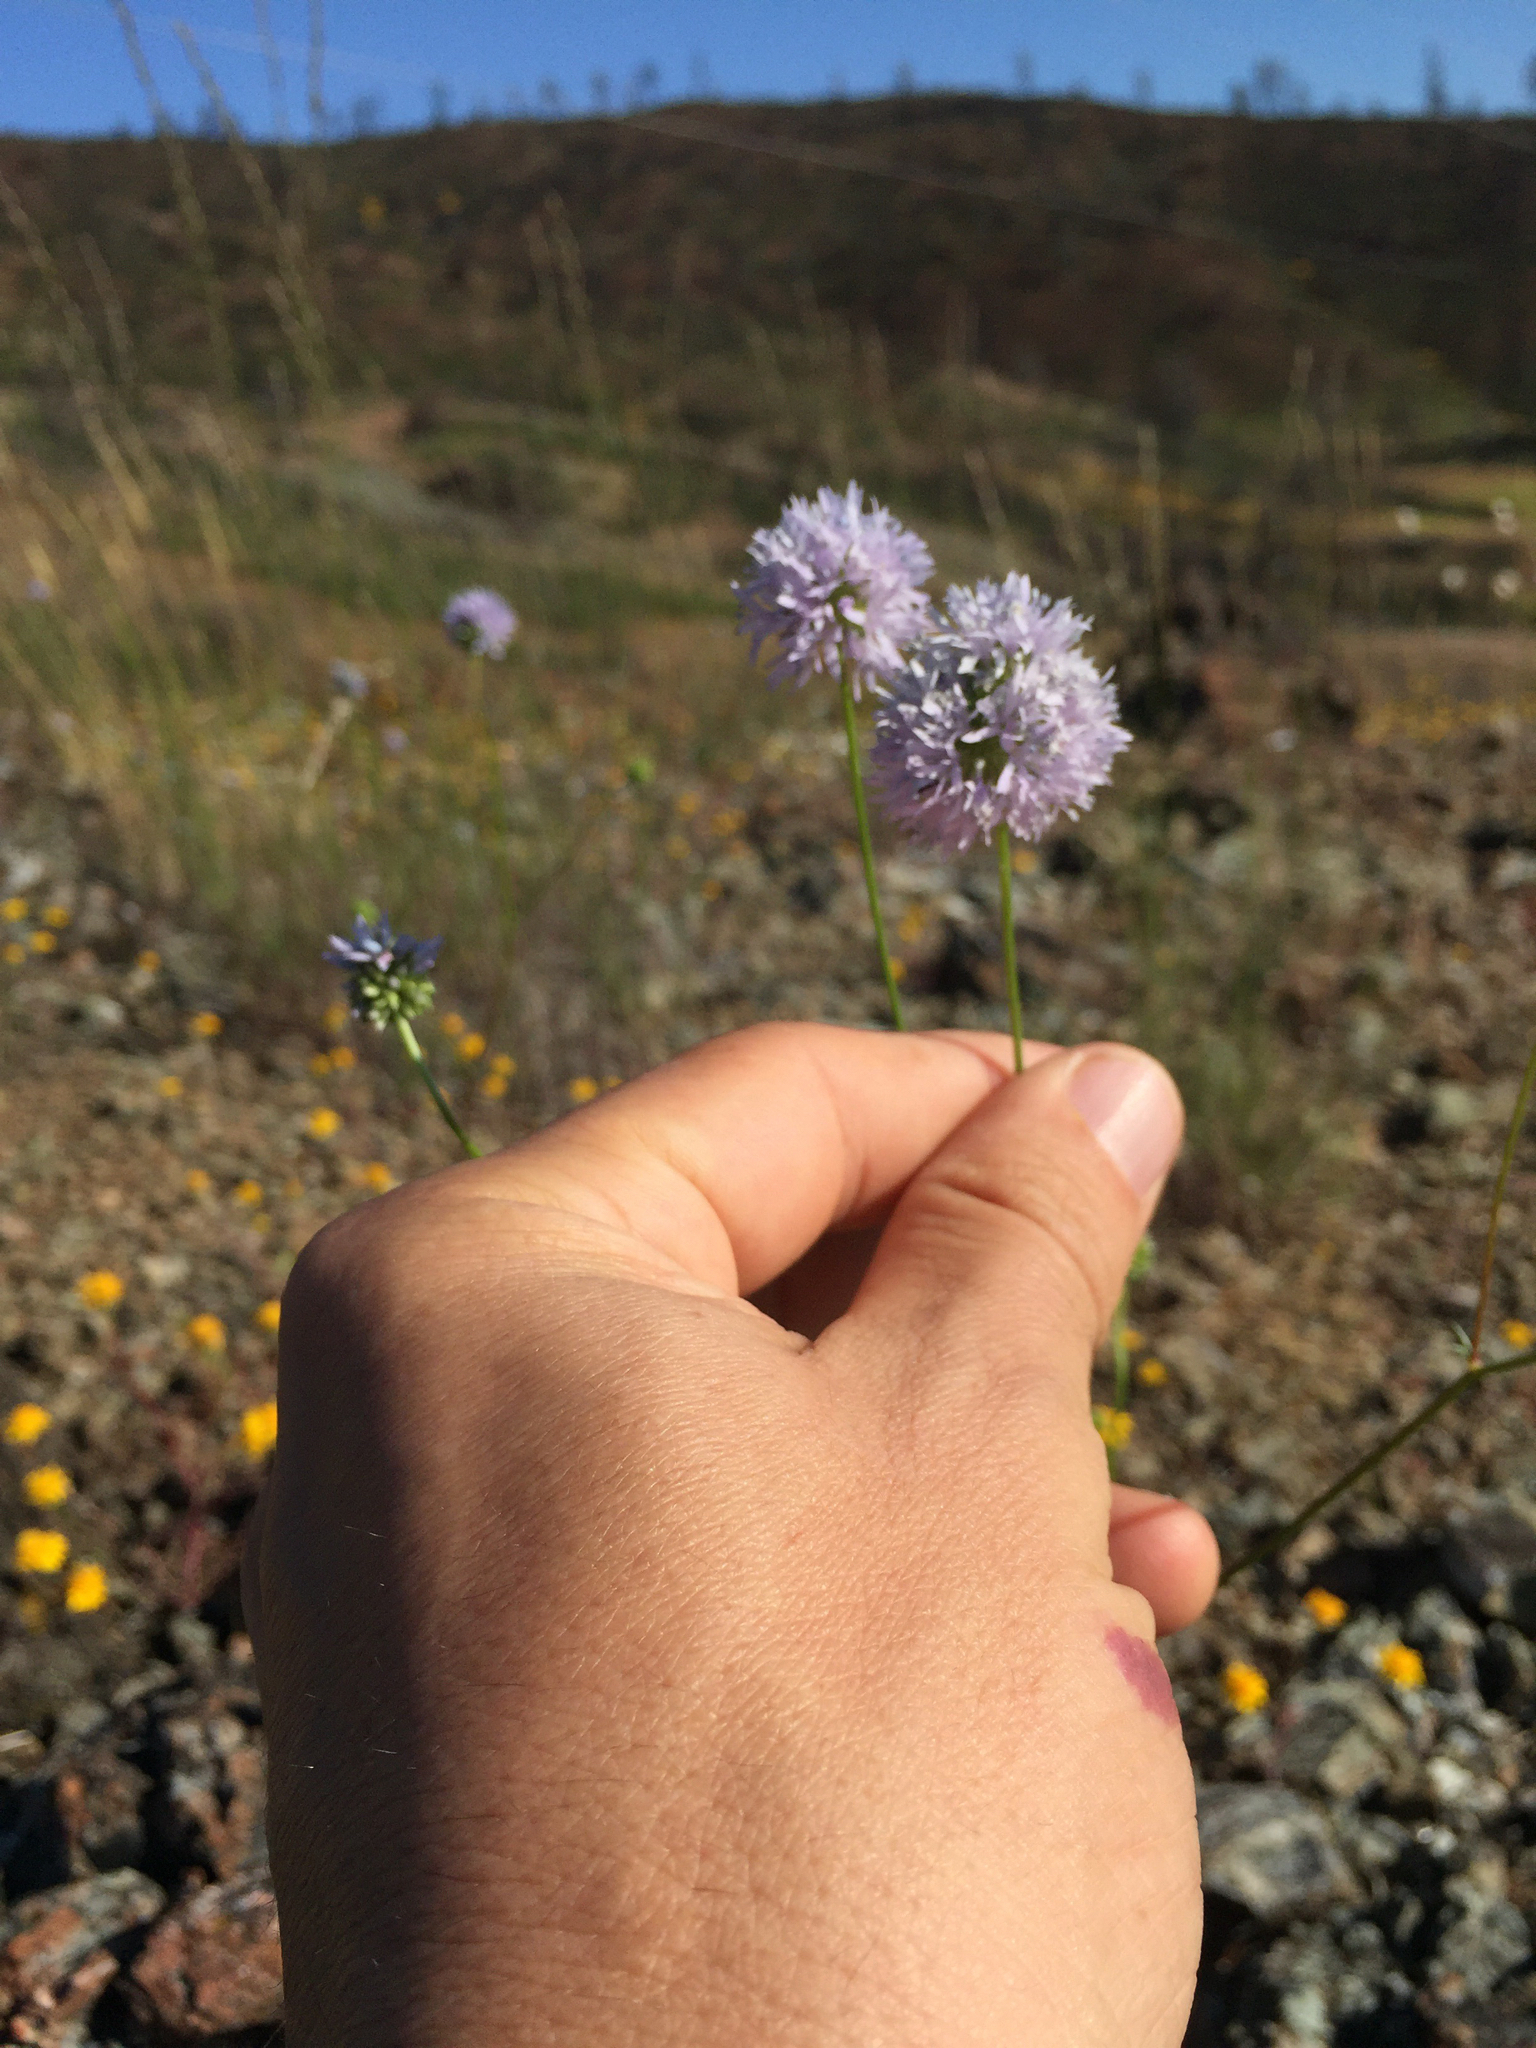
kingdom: Plantae
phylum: Tracheophyta
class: Magnoliopsida
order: Ericales
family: Polemoniaceae
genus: Gilia
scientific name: Gilia capitata
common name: Bluehead gilia
